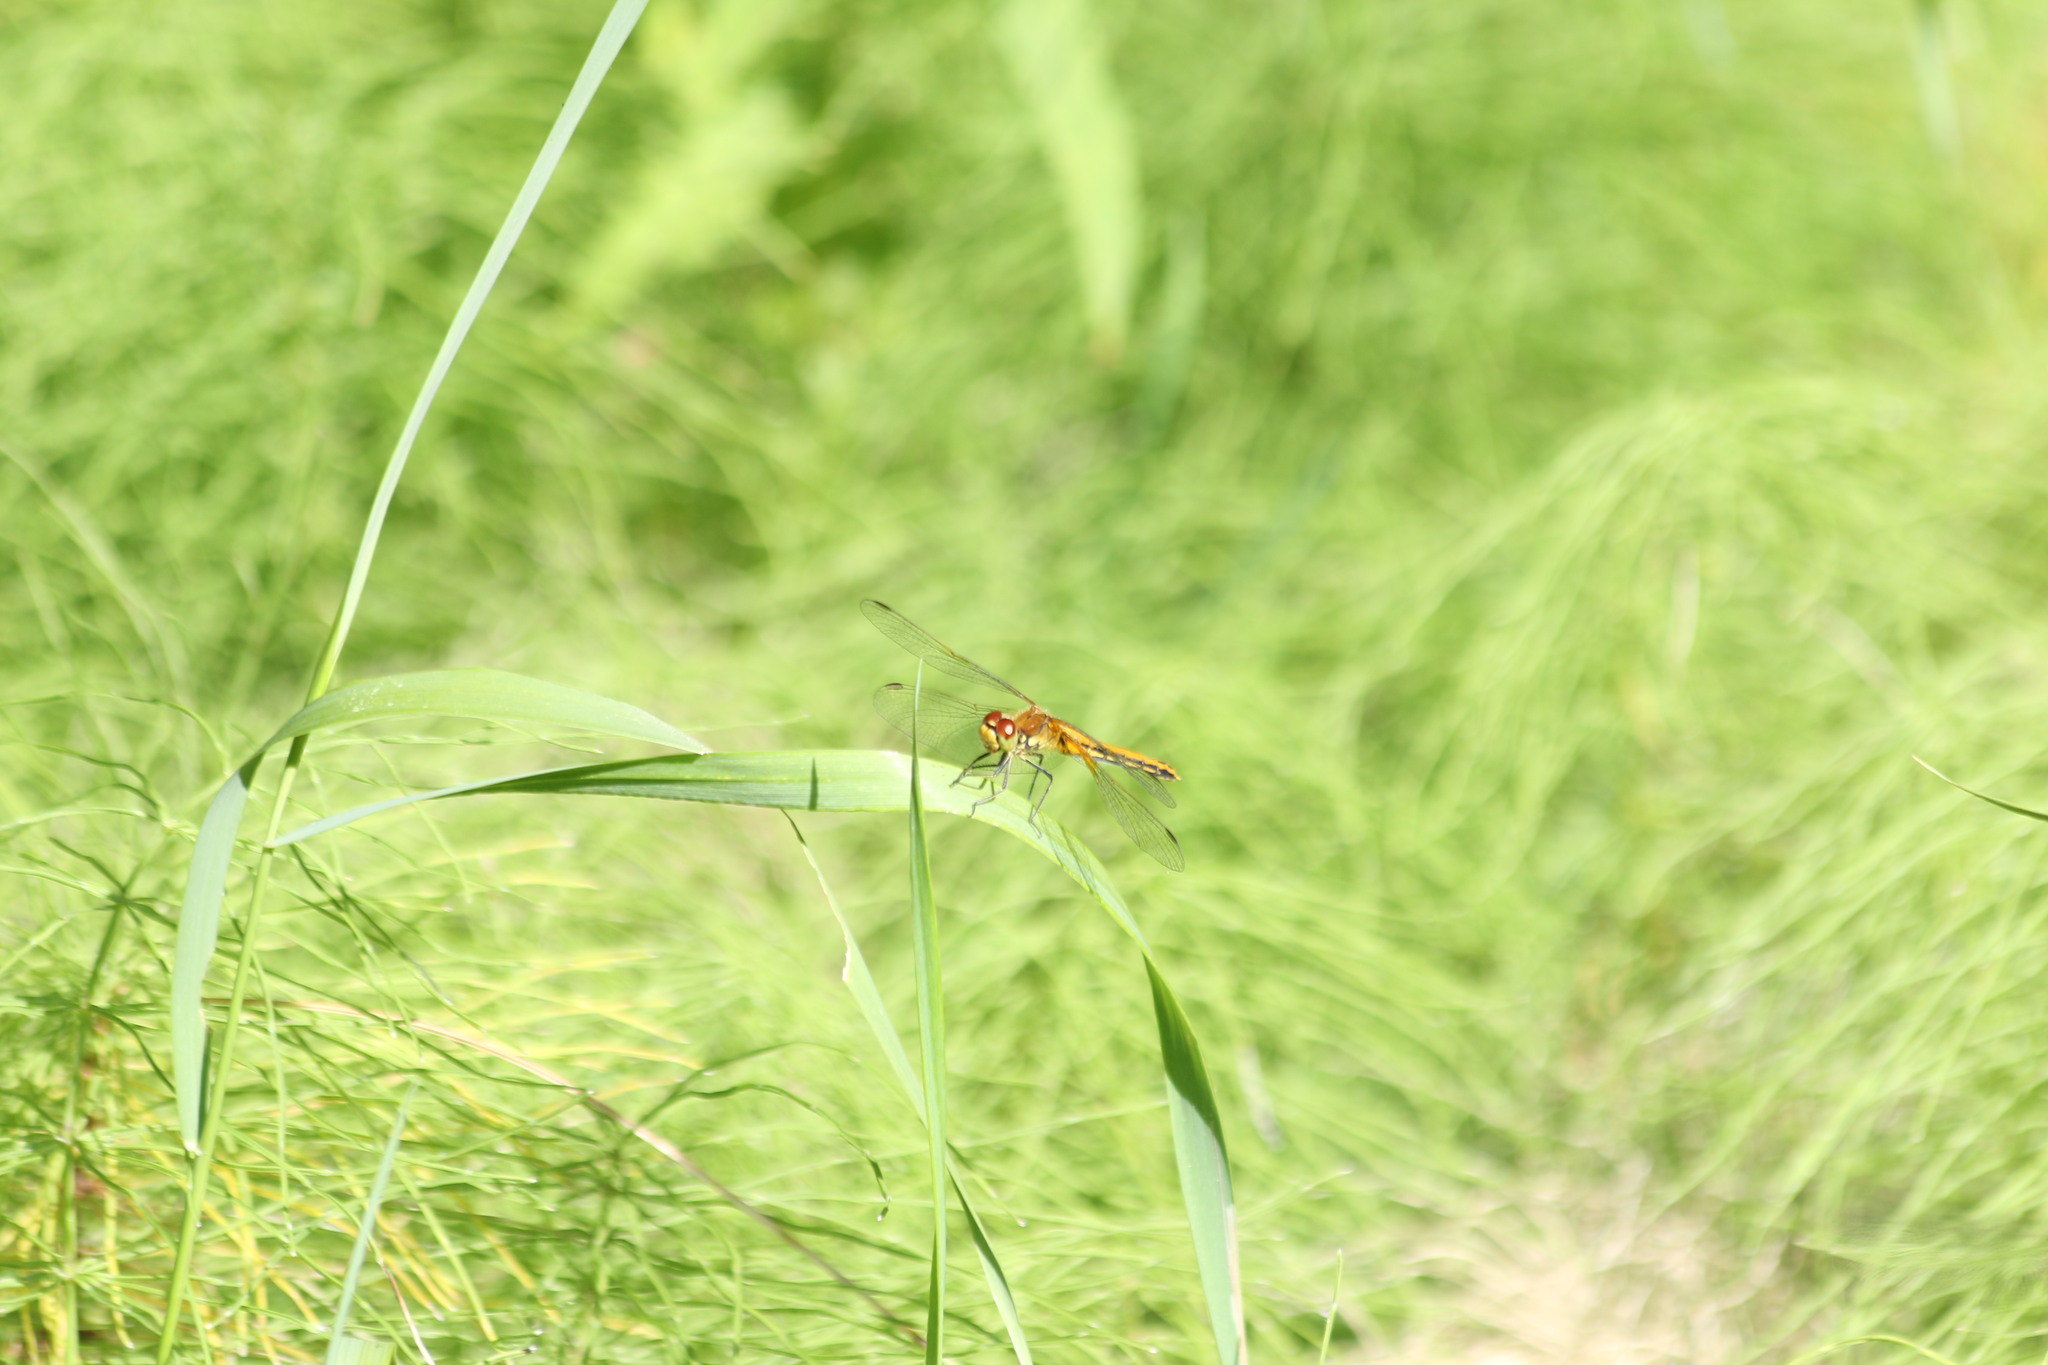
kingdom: Animalia
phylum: Arthropoda
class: Insecta
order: Odonata
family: Libellulidae
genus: Sympetrum
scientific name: Sympetrum flaveolum
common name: Yellow-winged darter
